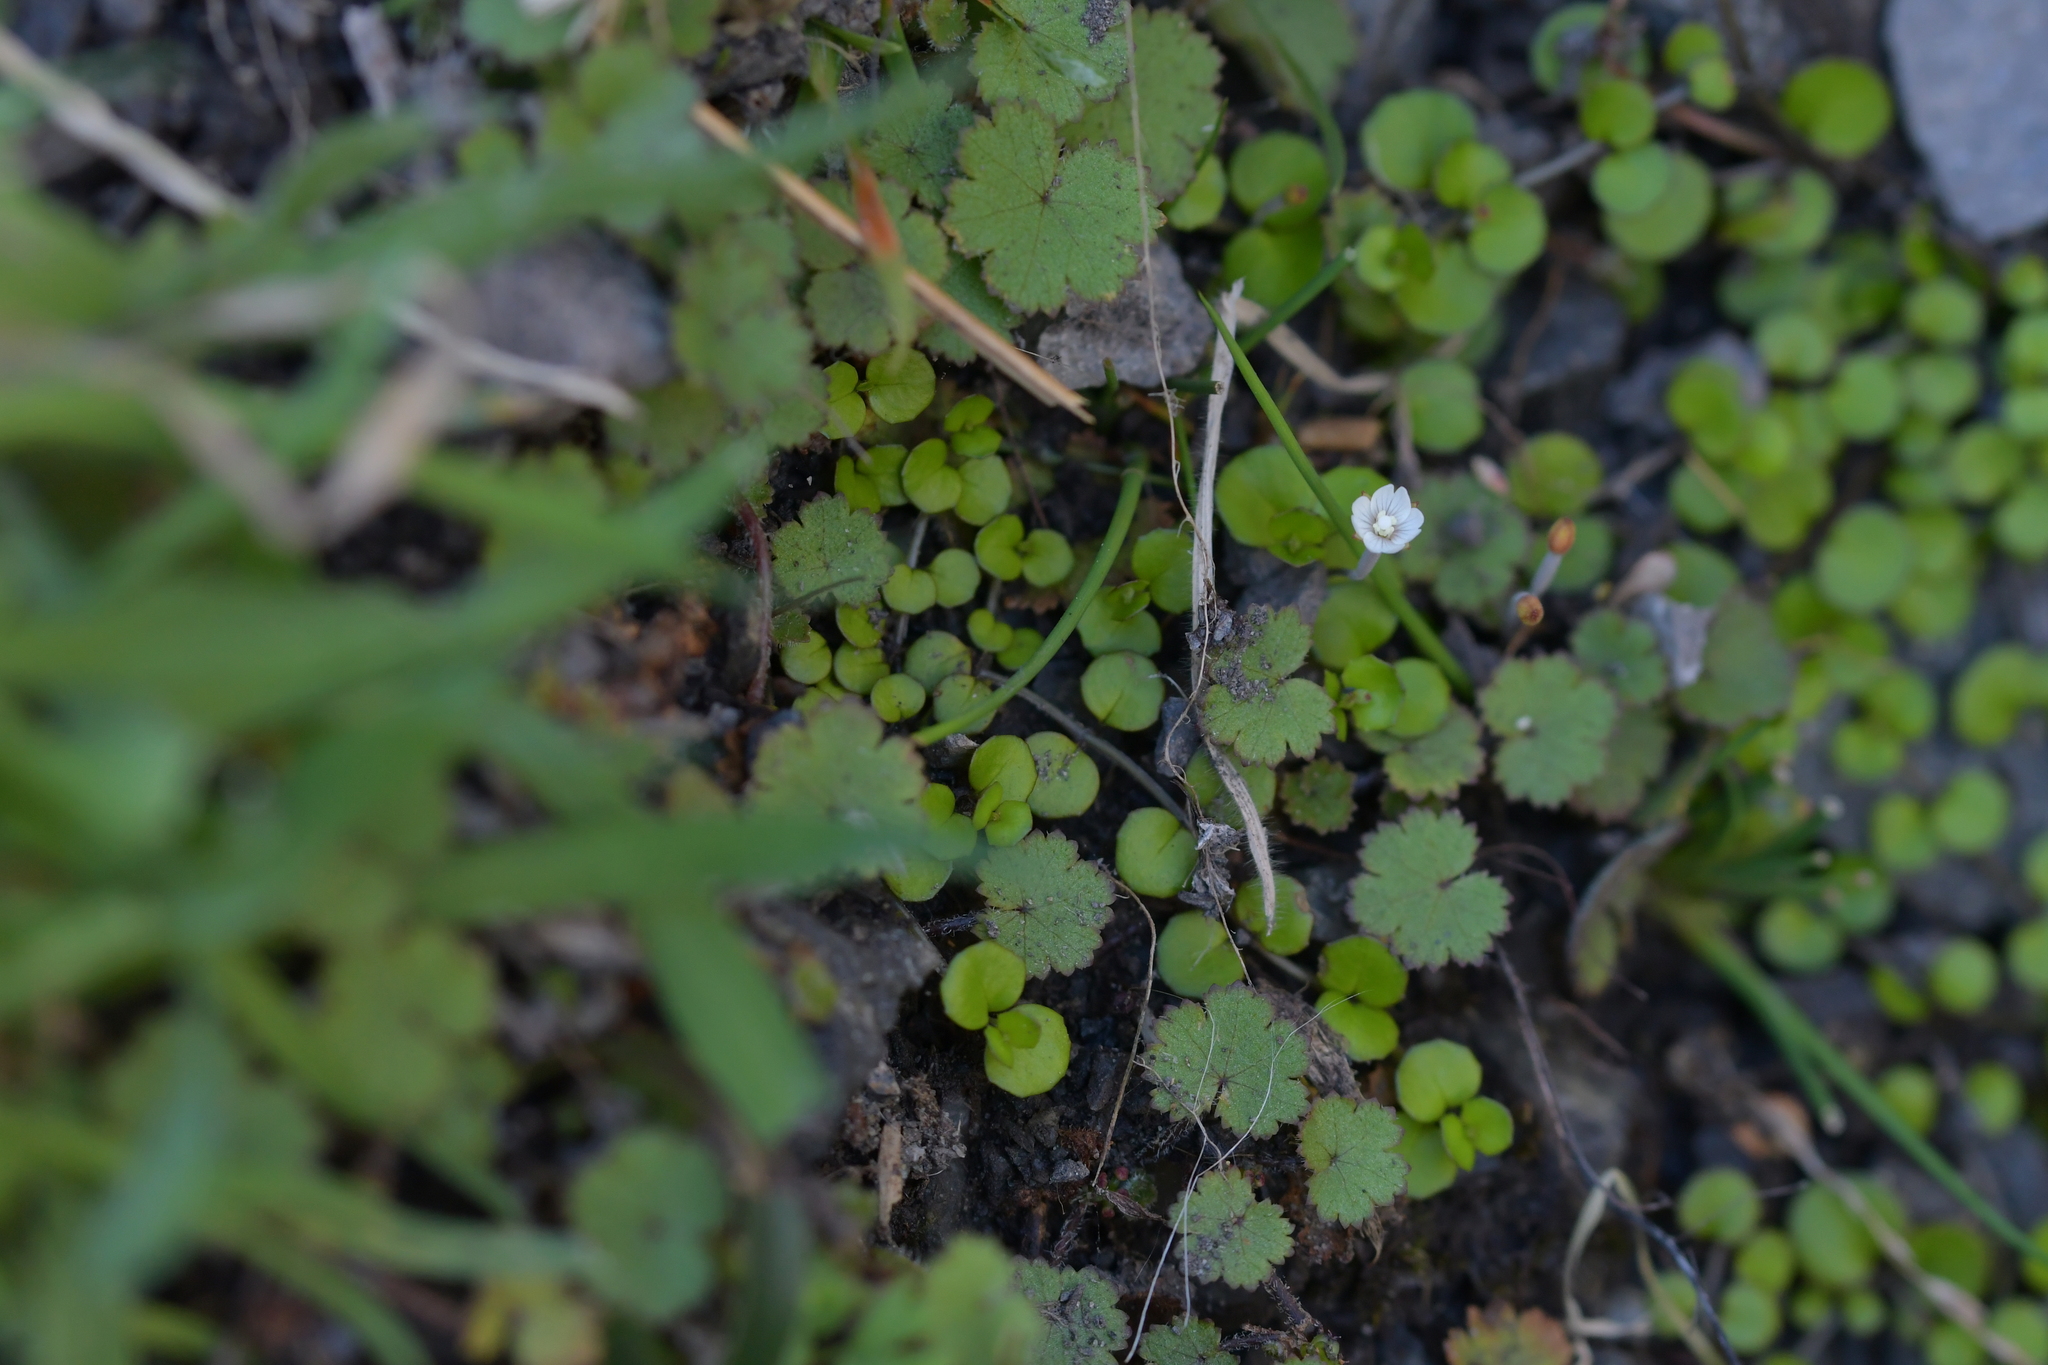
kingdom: Plantae
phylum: Tracheophyta
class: Magnoliopsida
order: Myrtales
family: Onagraceae
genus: Epilobium
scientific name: Epilobium nummularifolium
